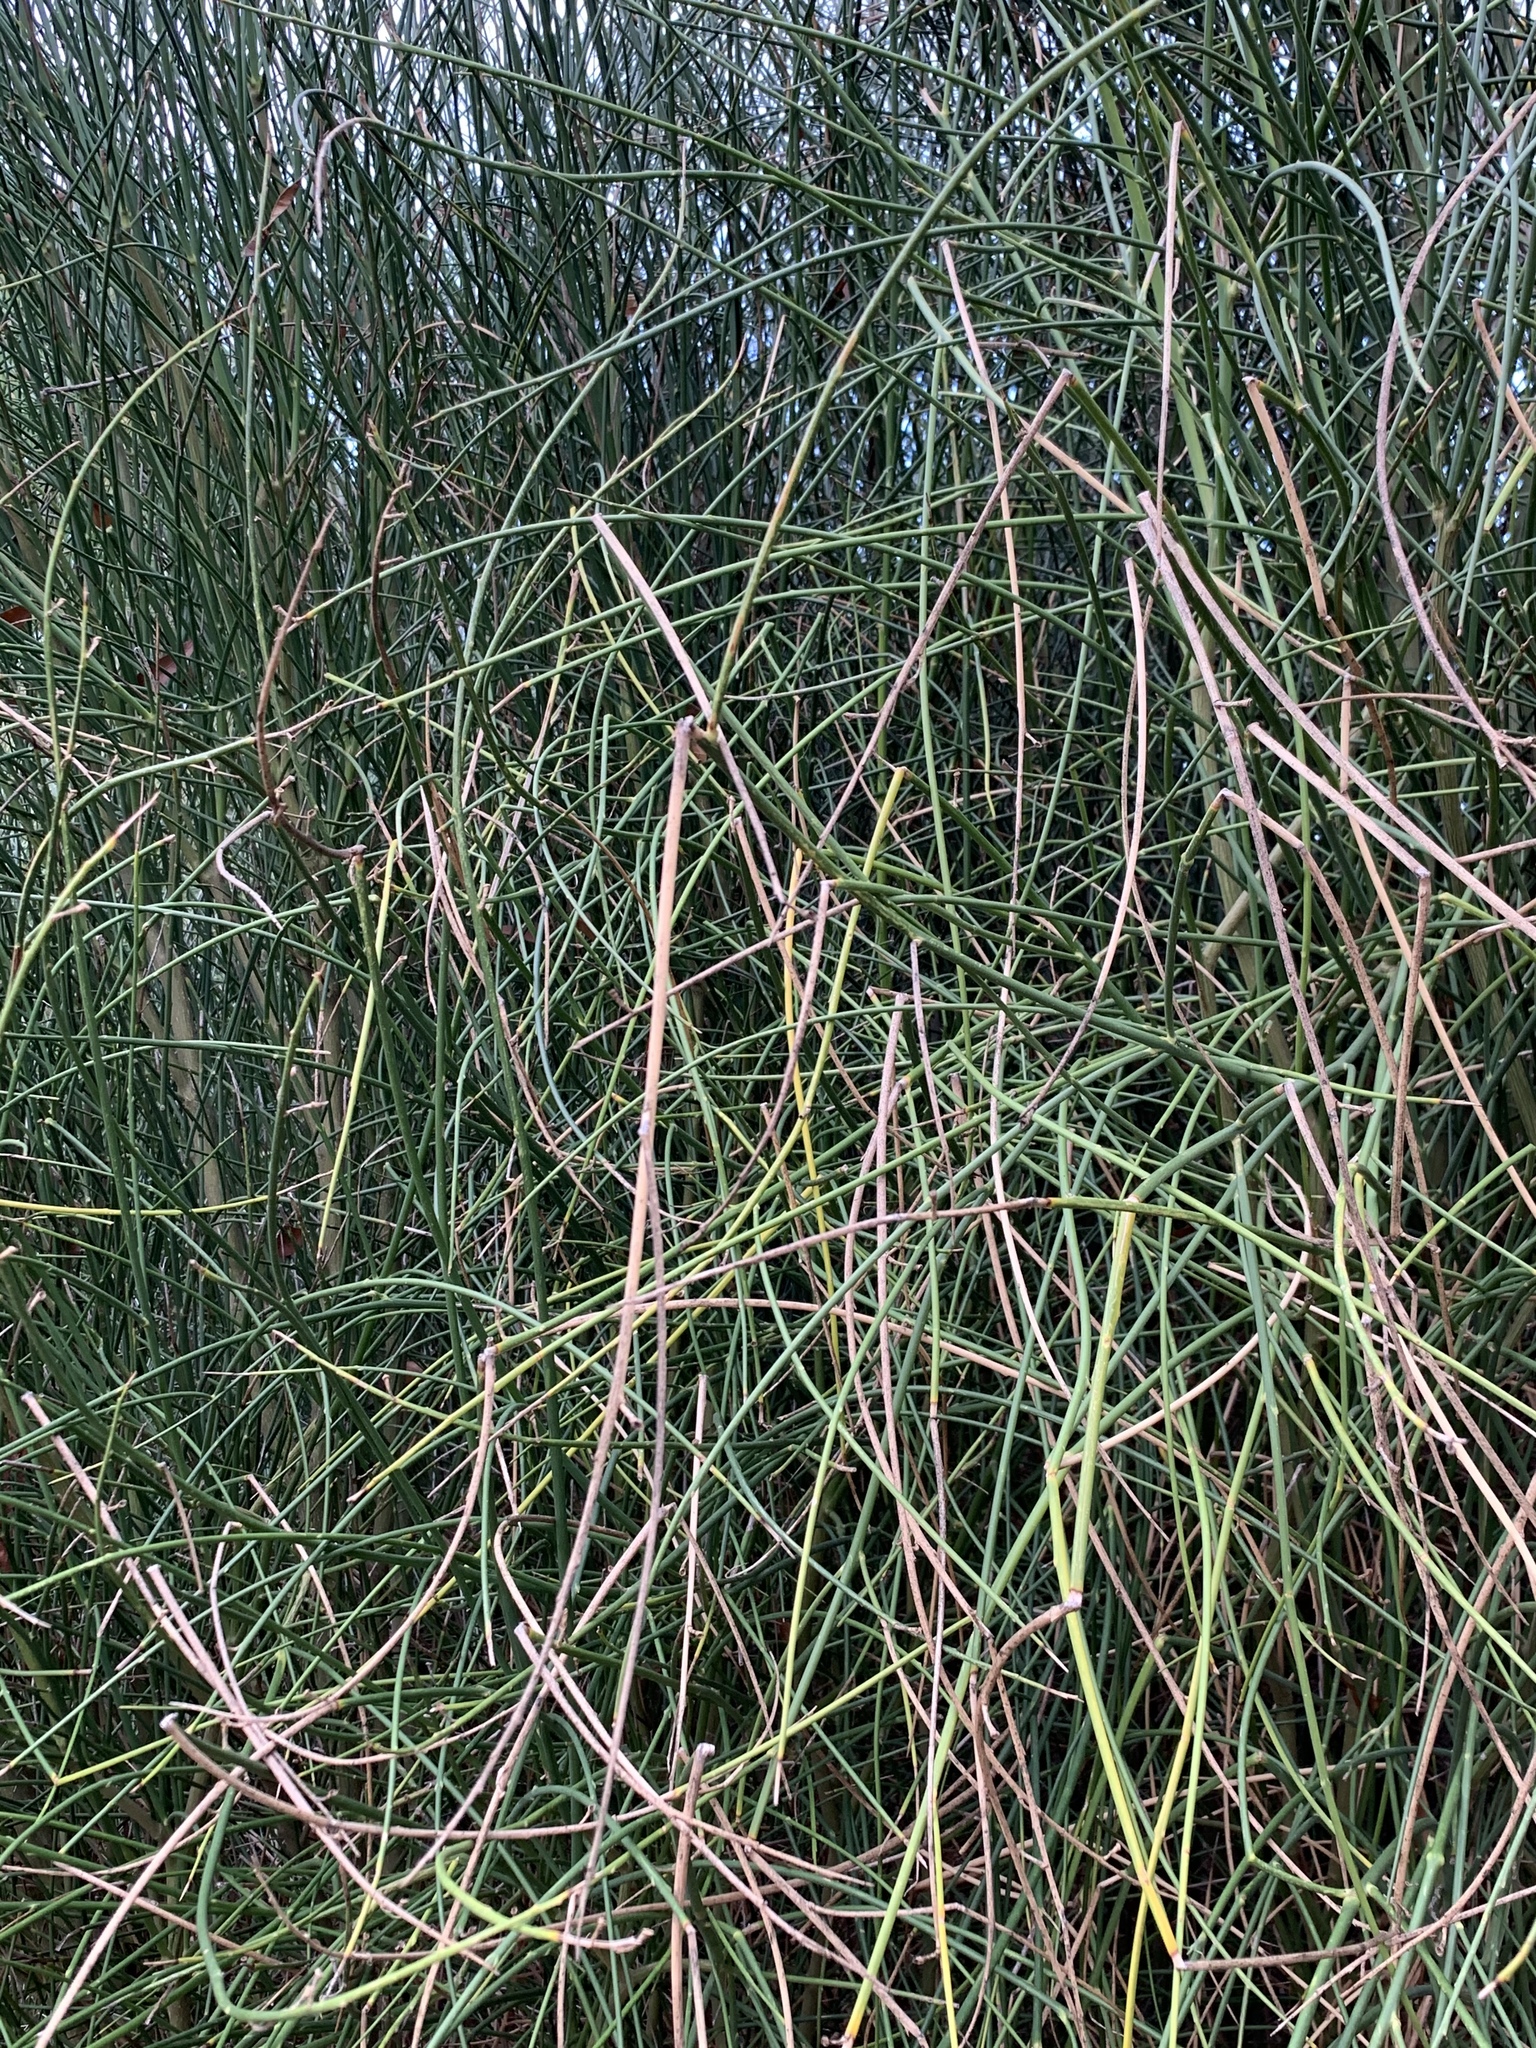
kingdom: Plantae
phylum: Tracheophyta
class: Magnoliopsida
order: Fabales
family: Fabaceae
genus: Spartium
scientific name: Spartium junceum
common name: Spanish broom
